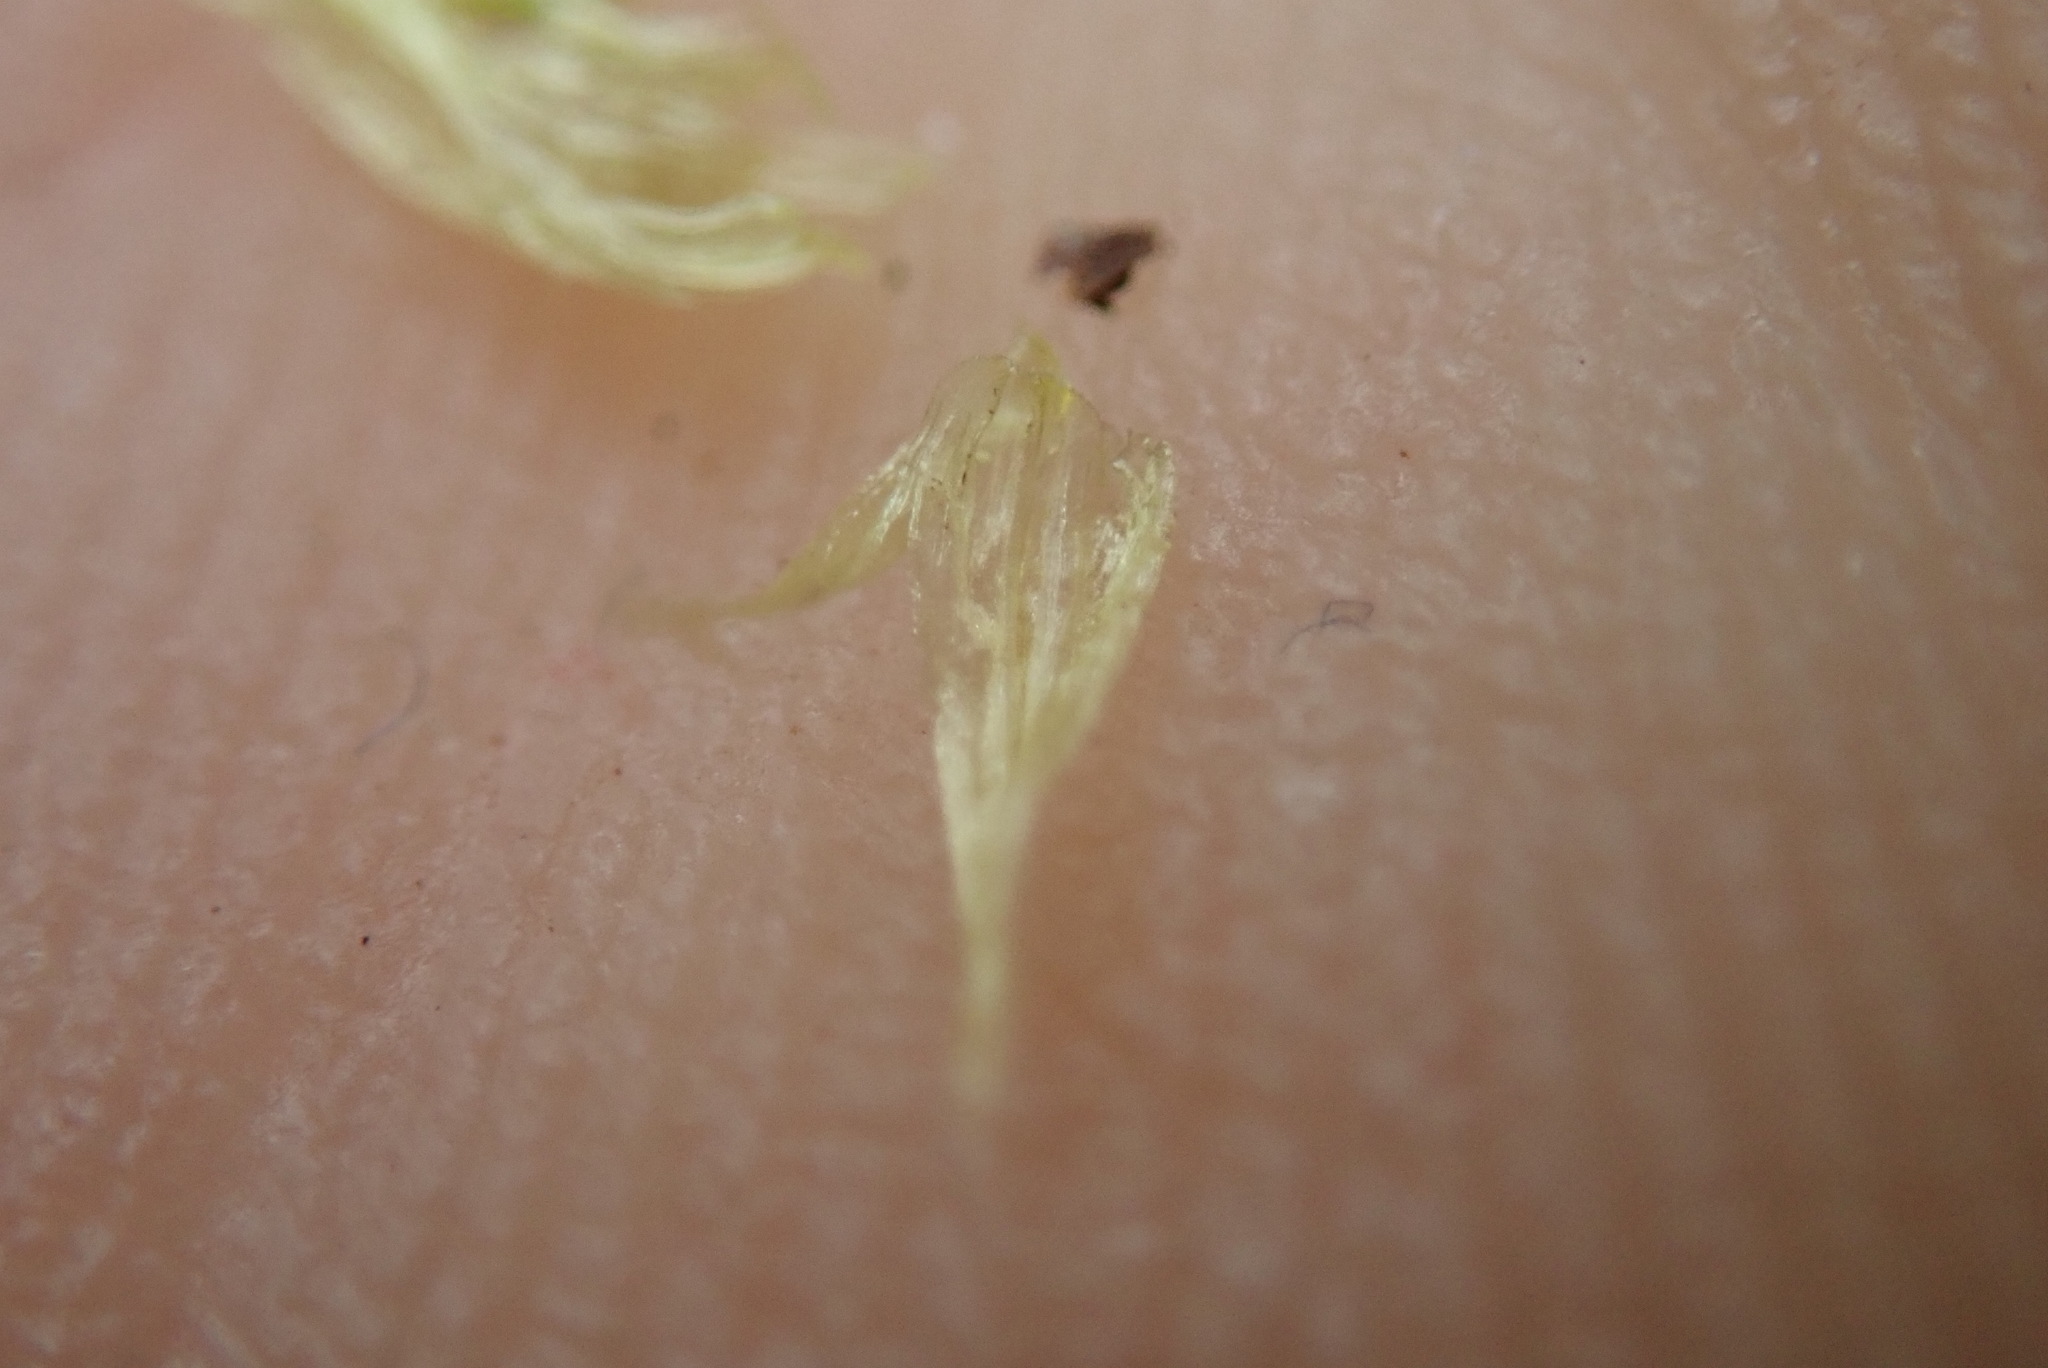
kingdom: Plantae
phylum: Bryophyta
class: Bryopsida
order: Hypnales
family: Brachytheciaceae
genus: Homalothecium
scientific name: Homalothecium megaptilum
